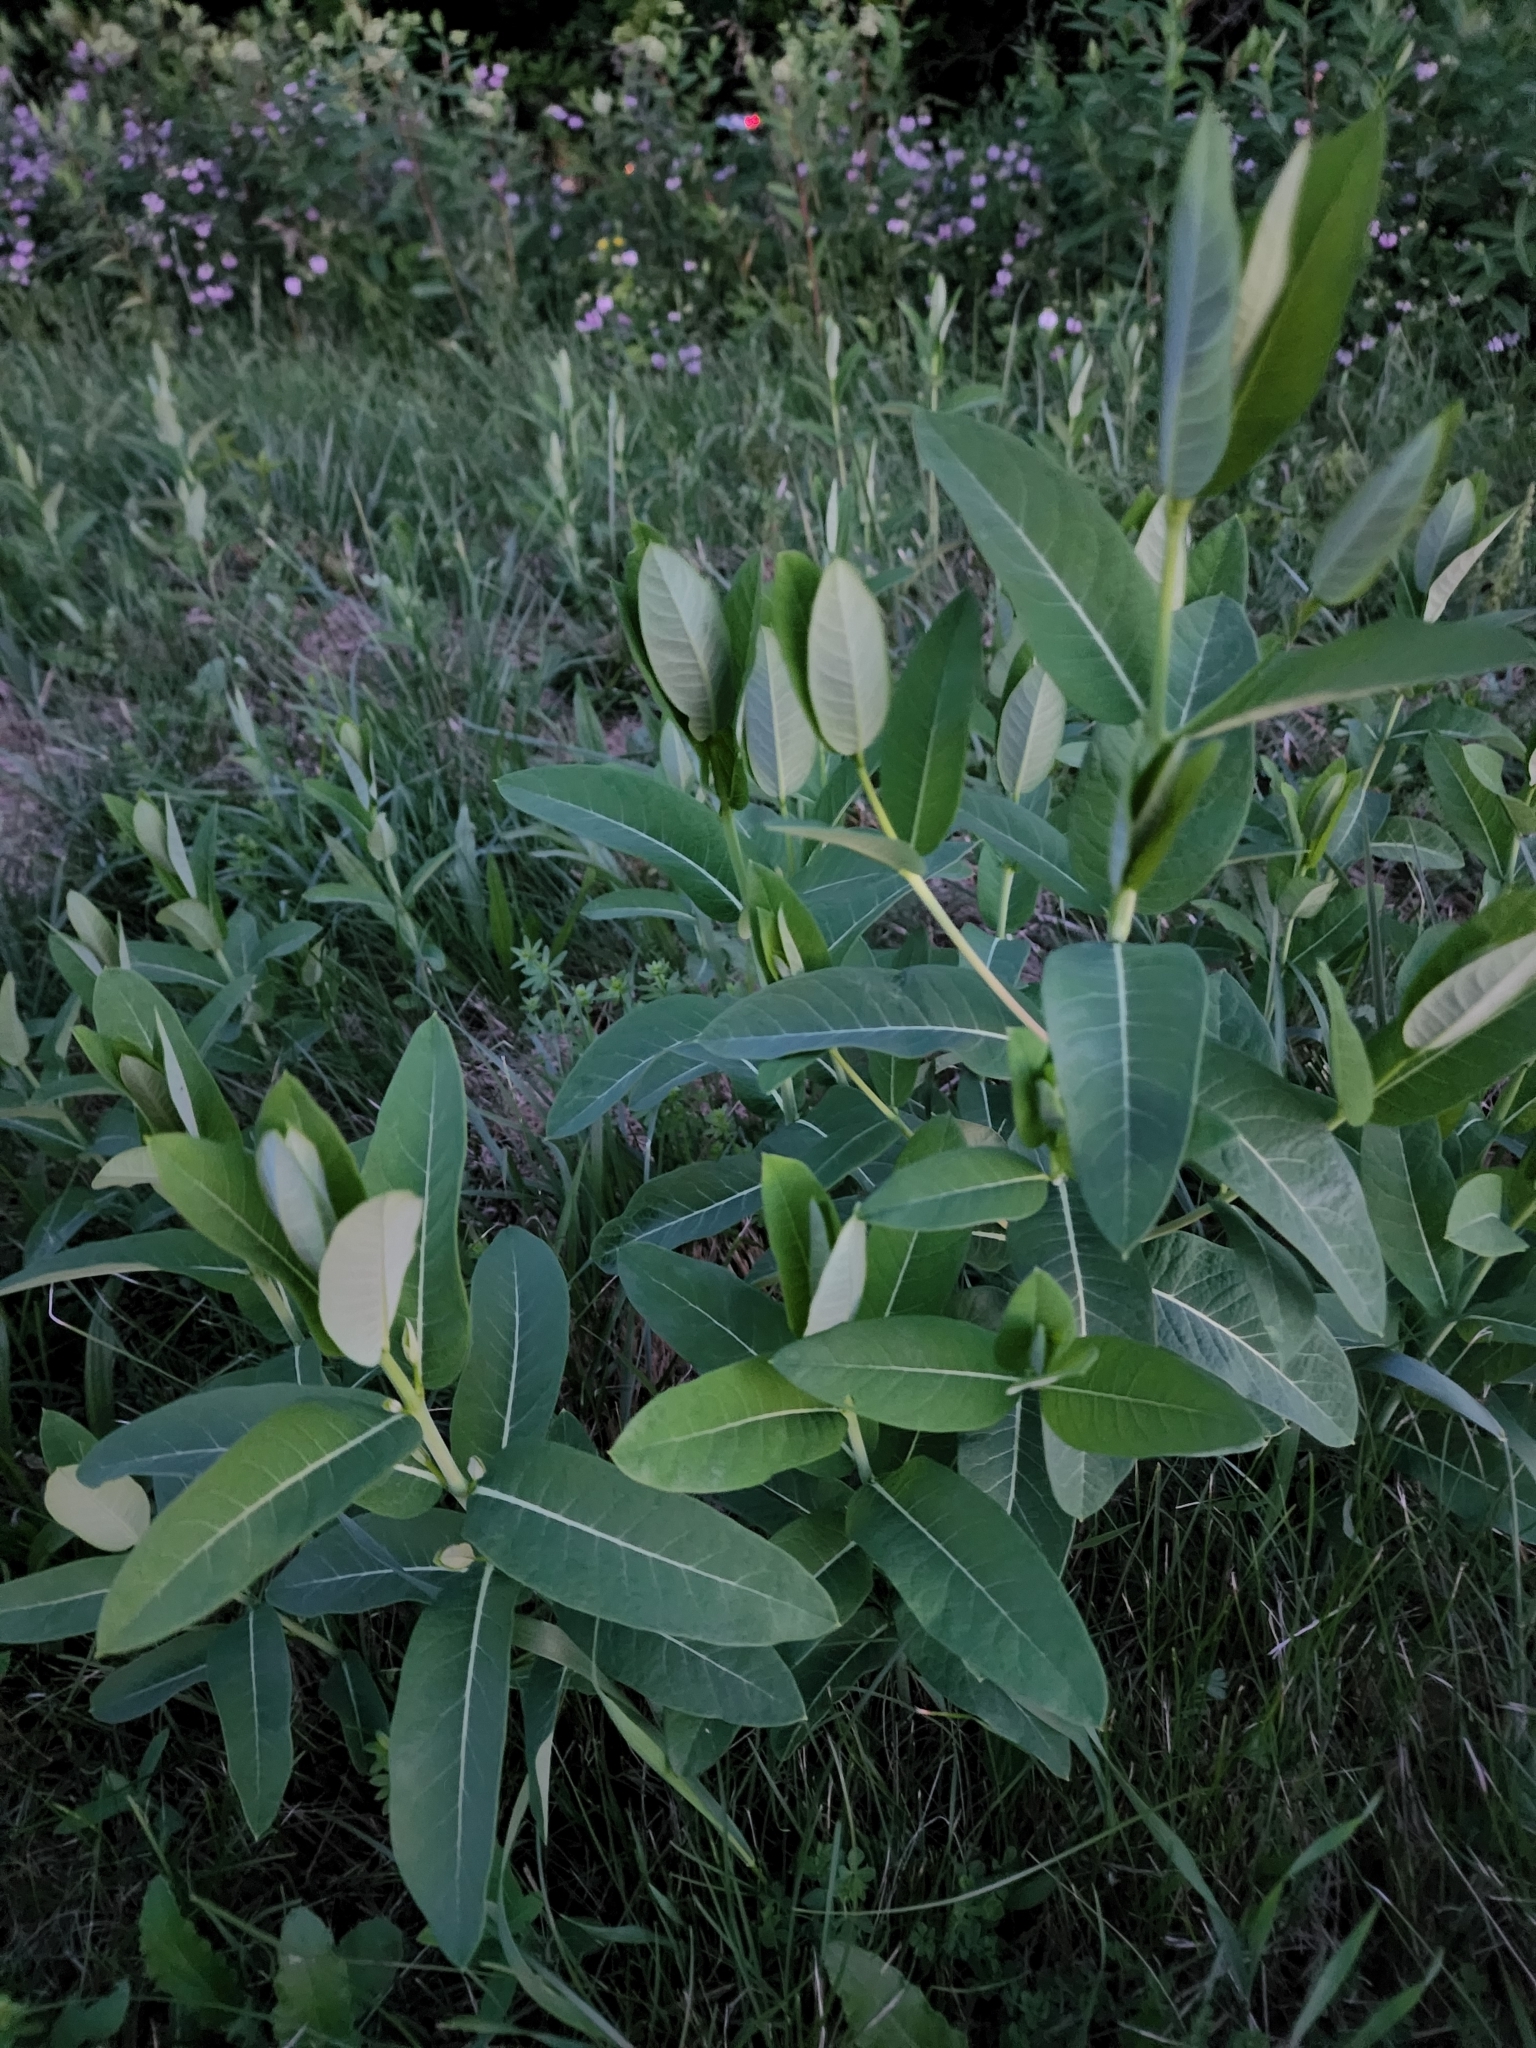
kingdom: Plantae
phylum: Tracheophyta
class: Magnoliopsida
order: Gentianales
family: Apocynaceae
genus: Apocynum
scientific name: Apocynum cannabinum
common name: Hemp dogbane
